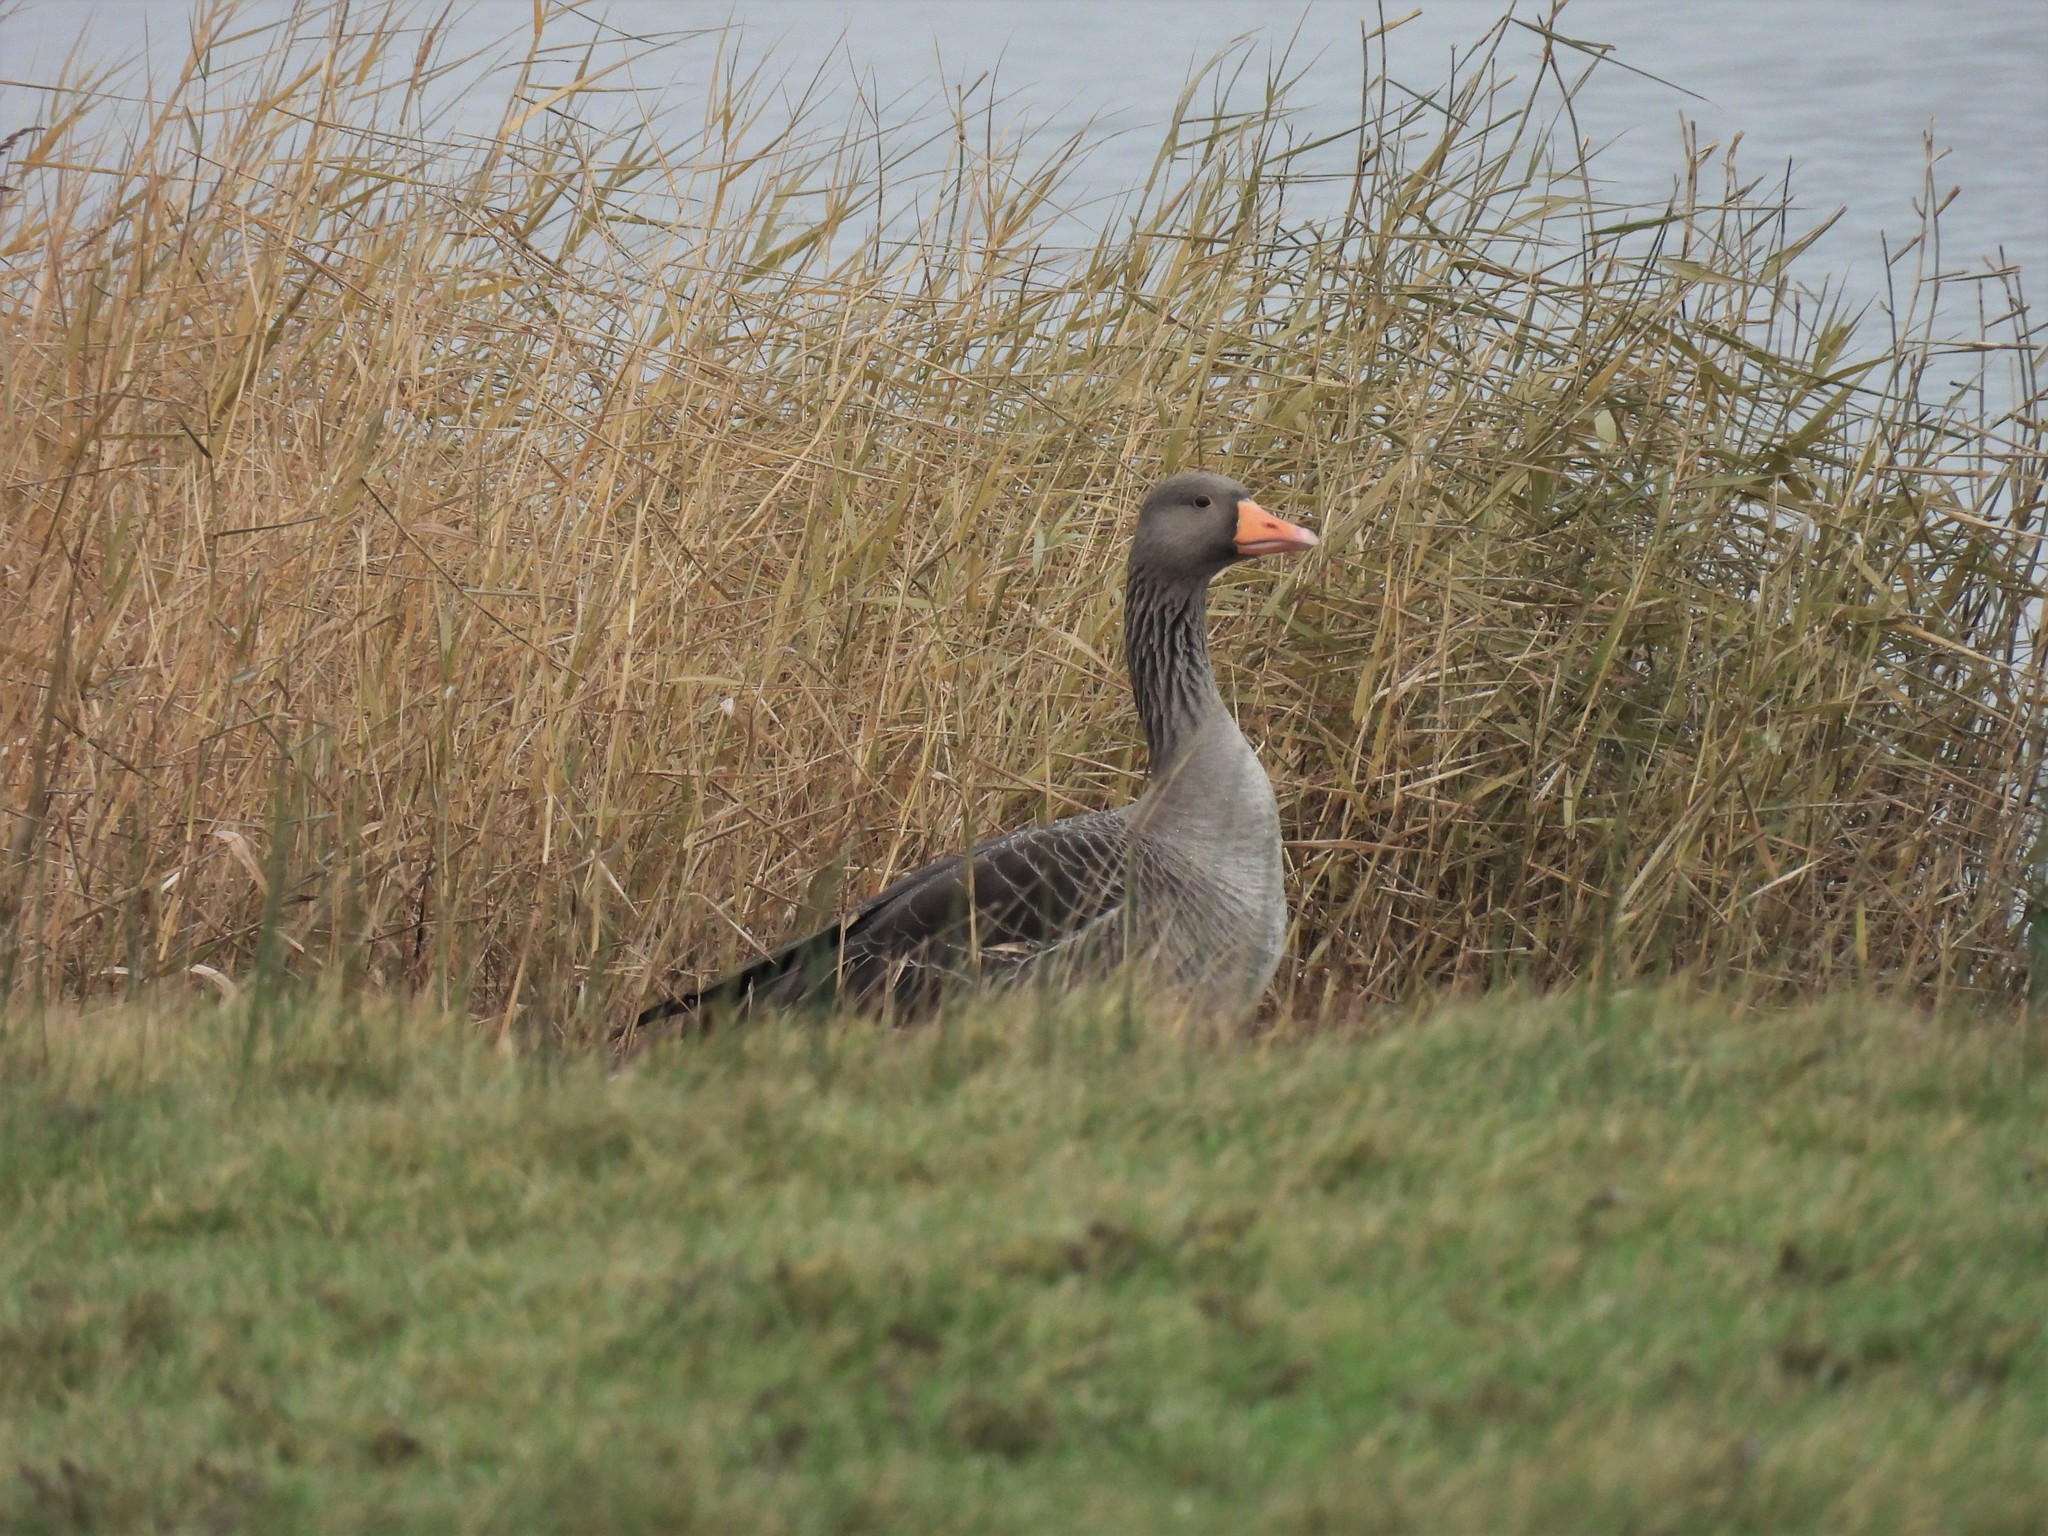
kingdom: Animalia
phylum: Chordata
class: Aves
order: Anseriformes
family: Anatidae
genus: Anser
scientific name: Anser anser
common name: Greylag goose
